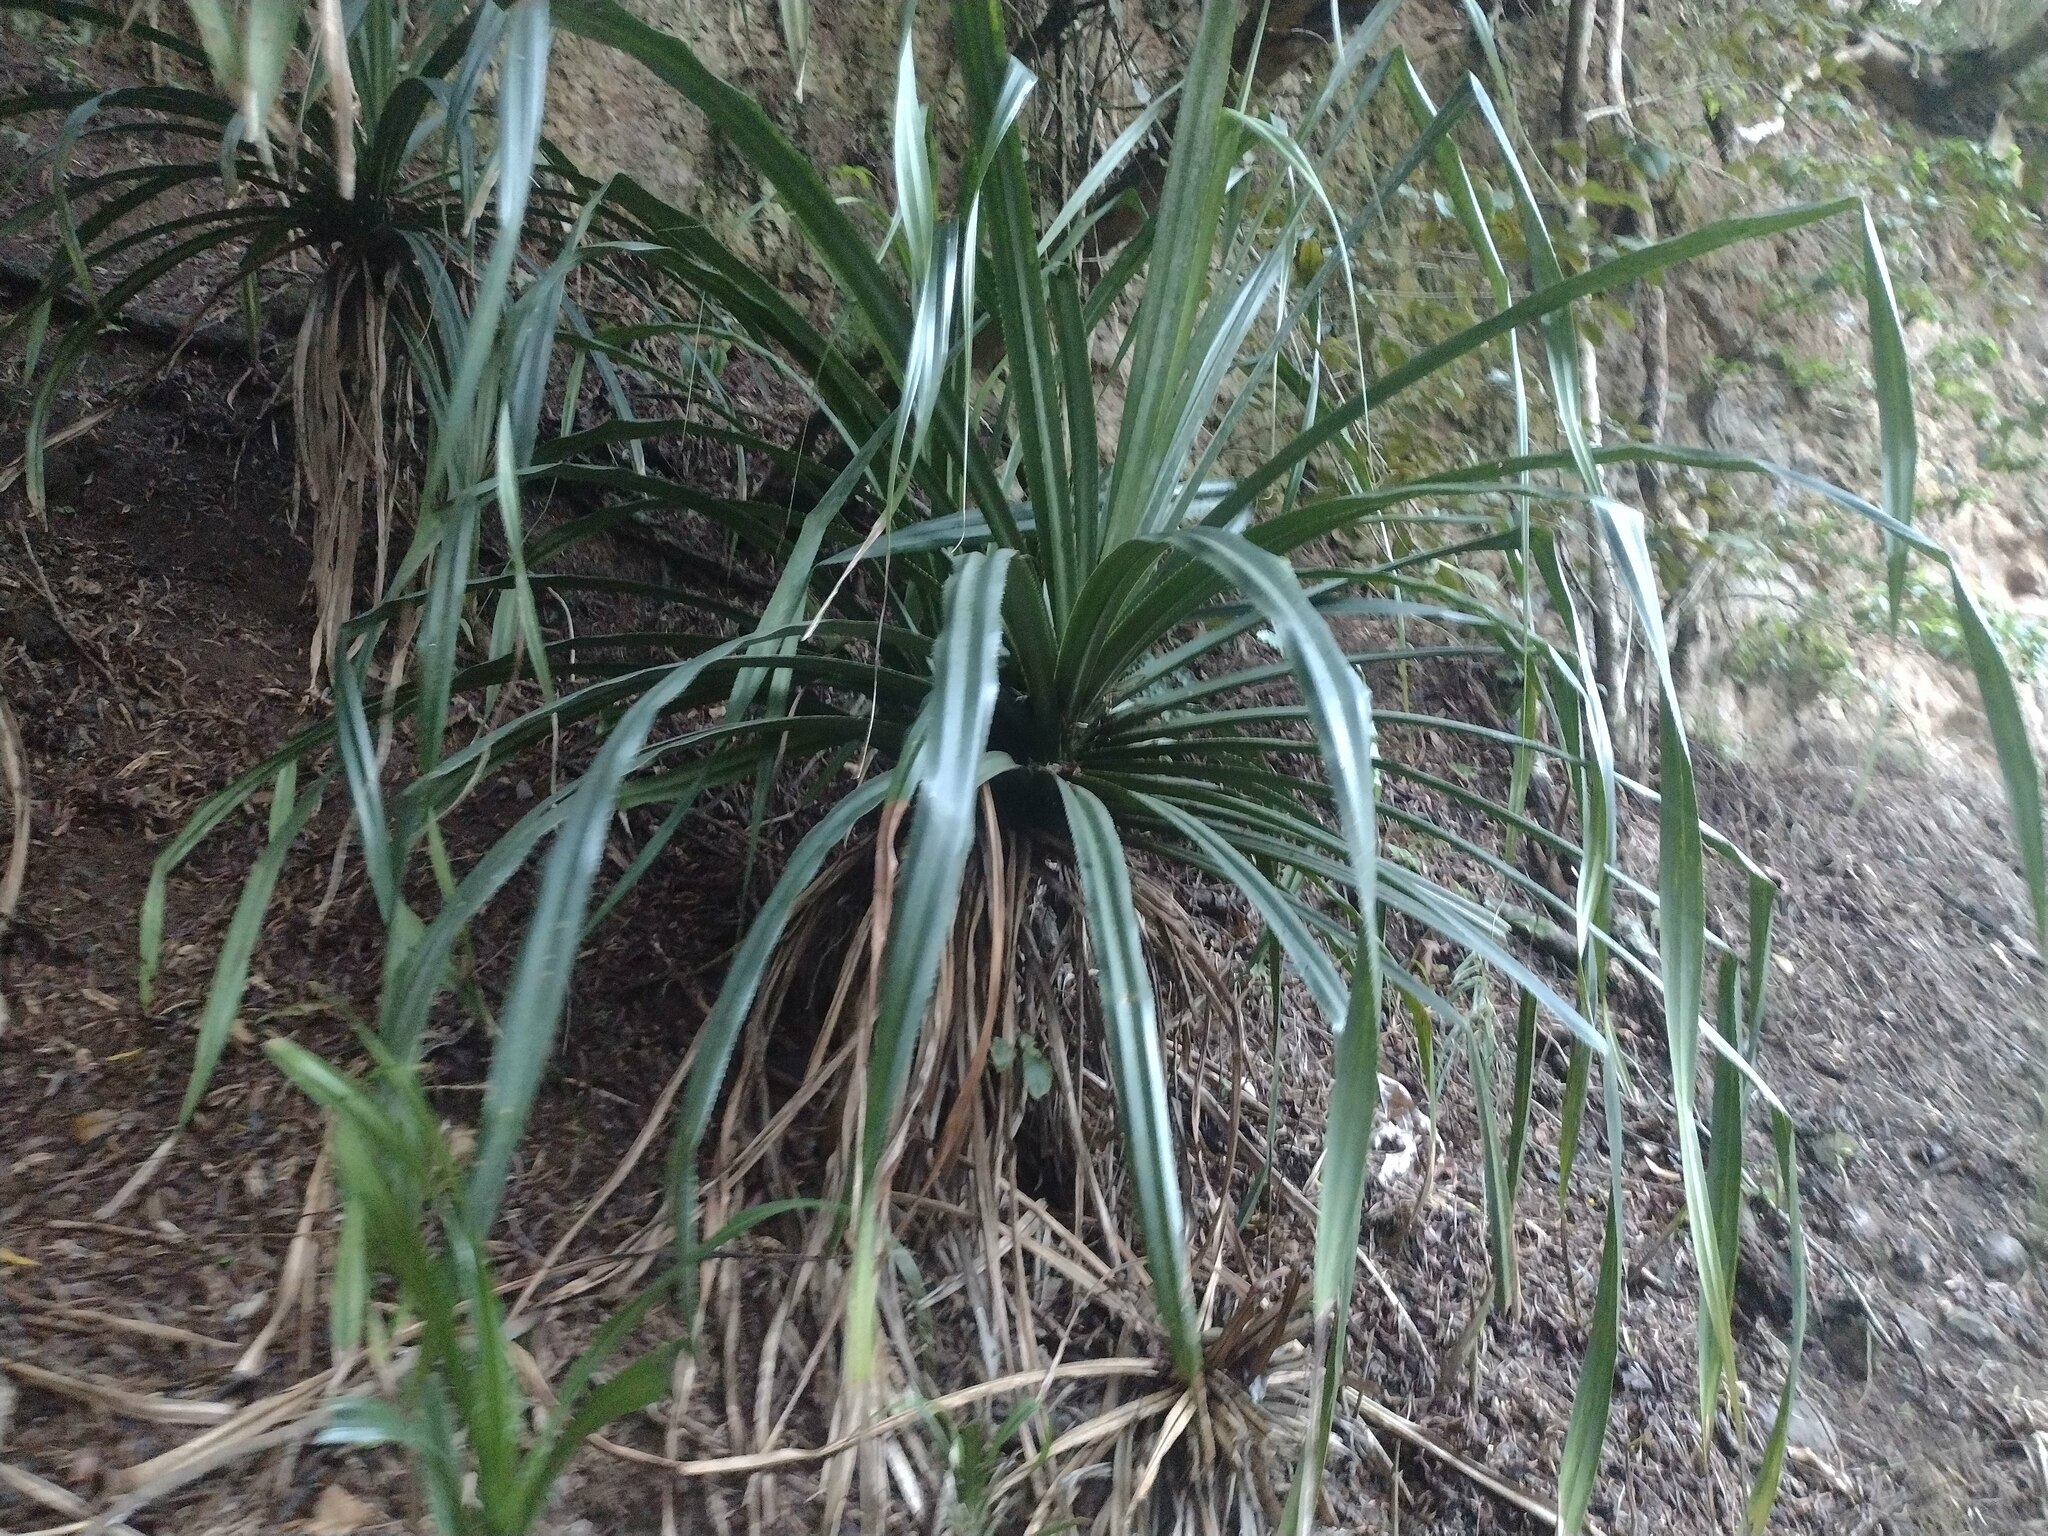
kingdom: Plantae
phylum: Tracheophyta
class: Liliopsida
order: Pandanales
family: Pandanaceae
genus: Pandanus
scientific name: Pandanus tectorius
